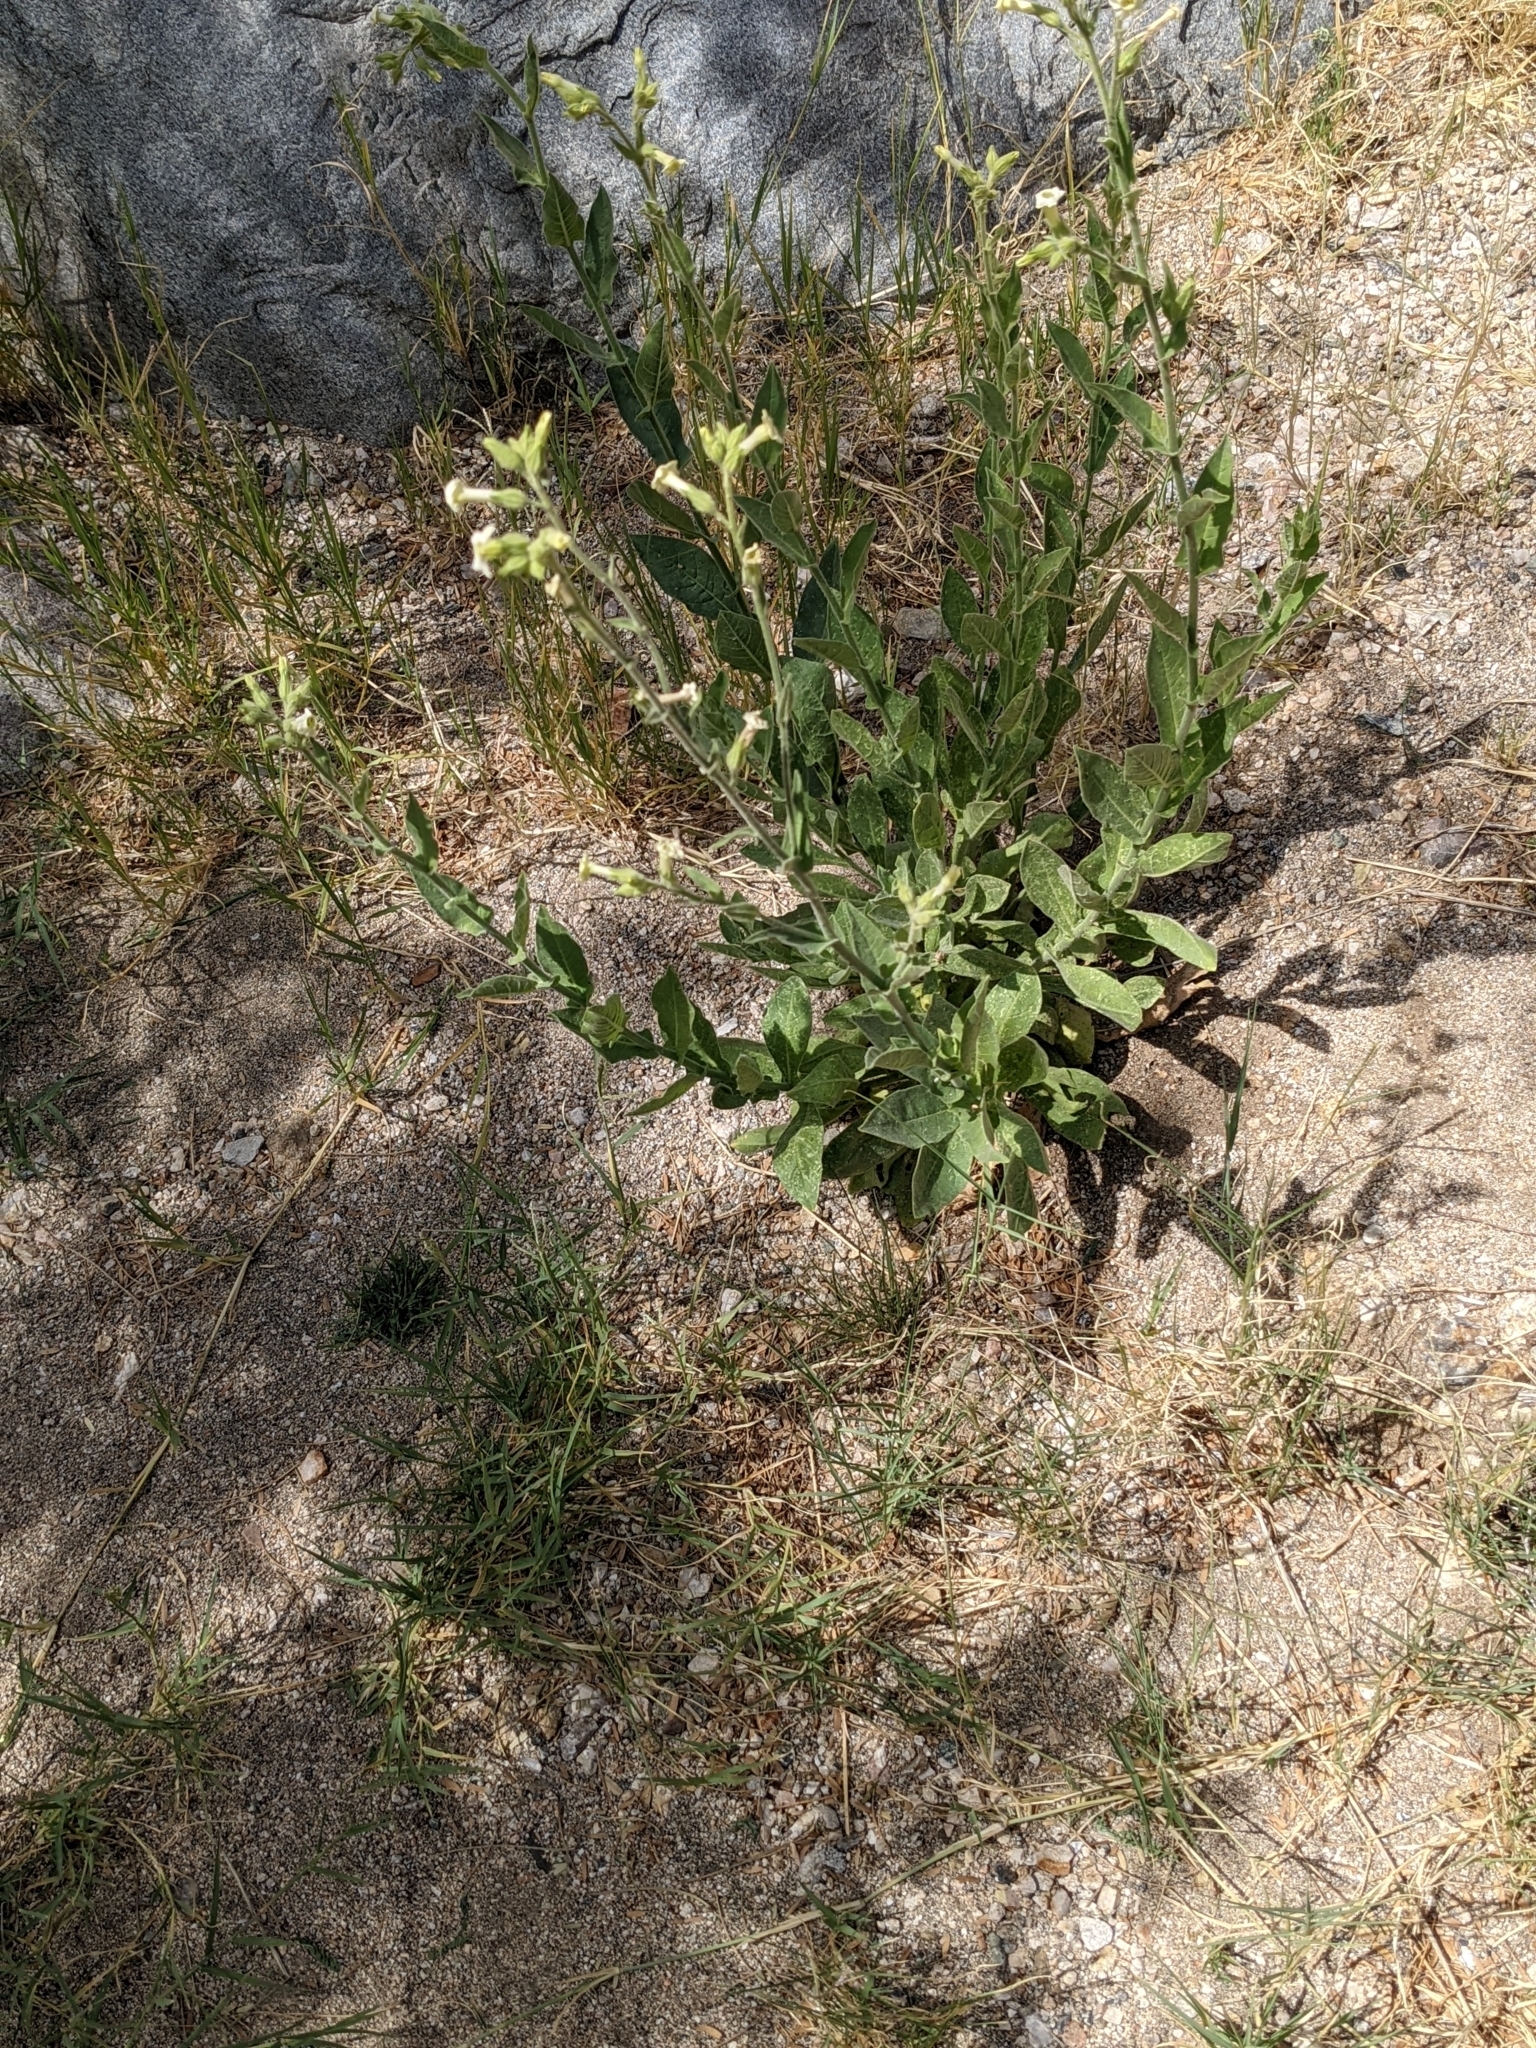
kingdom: Plantae
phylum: Tracheophyta
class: Magnoliopsida
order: Solanales
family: Solanaceae
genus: Nicotiana
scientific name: Nicotiana obtusifolia
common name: Desert tobacco
